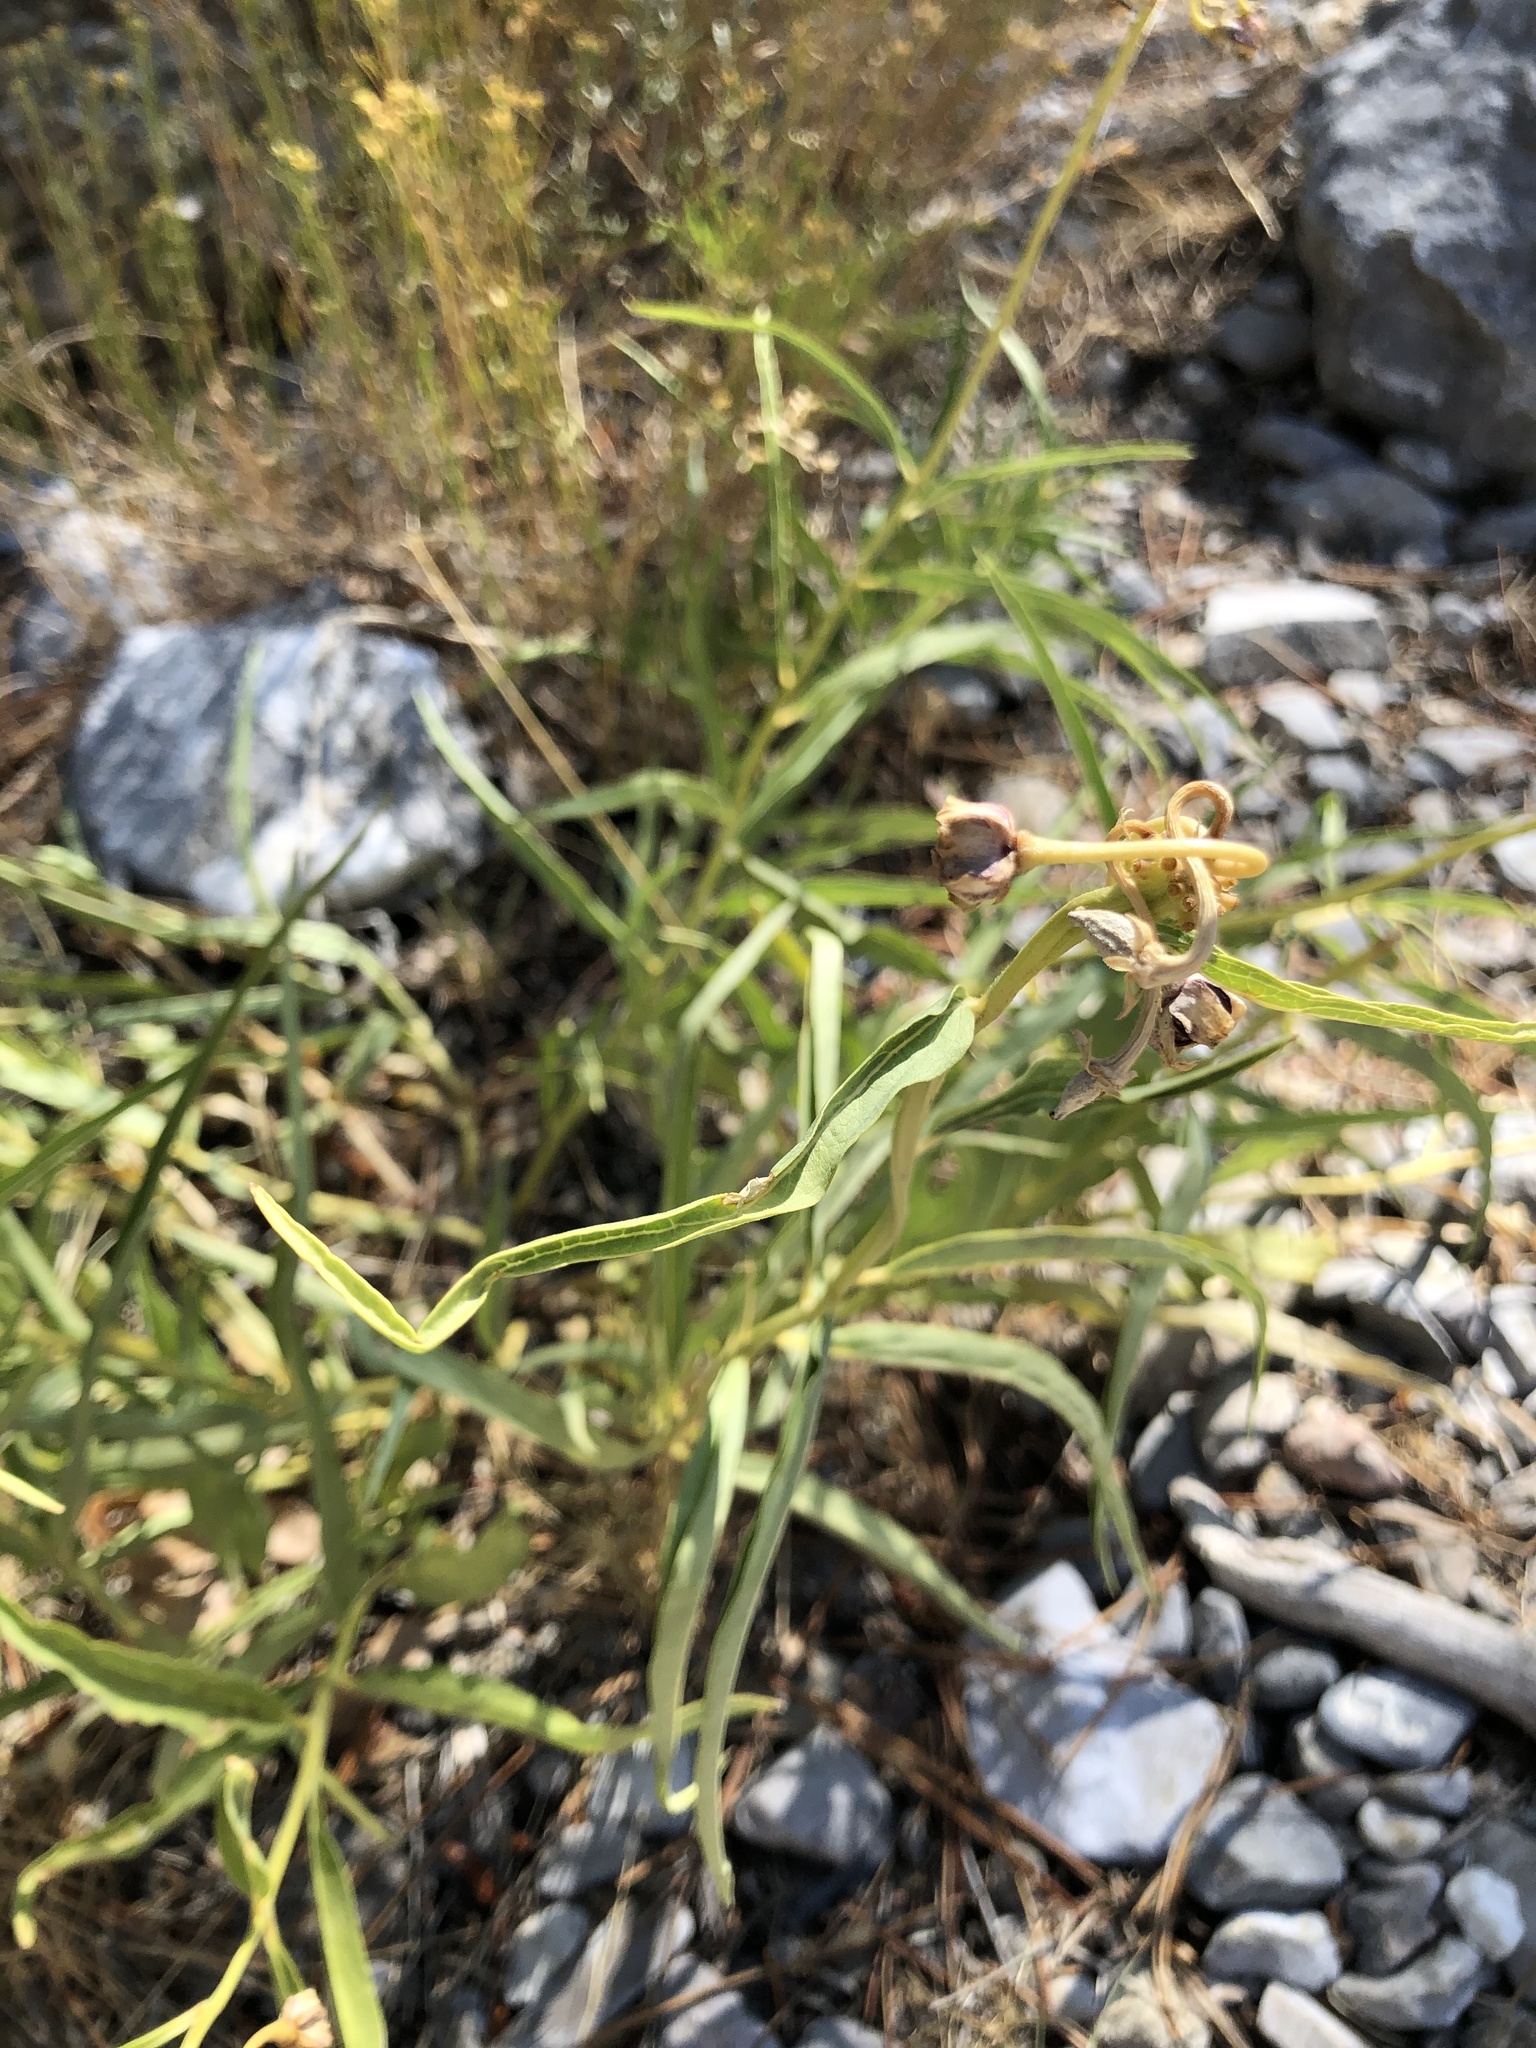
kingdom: Plantae
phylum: Tracheophyta
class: Magnoliopsida
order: Gentianales
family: Apocynaceae
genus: Asclepias
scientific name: Asclepias asperula
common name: Antelope horns
